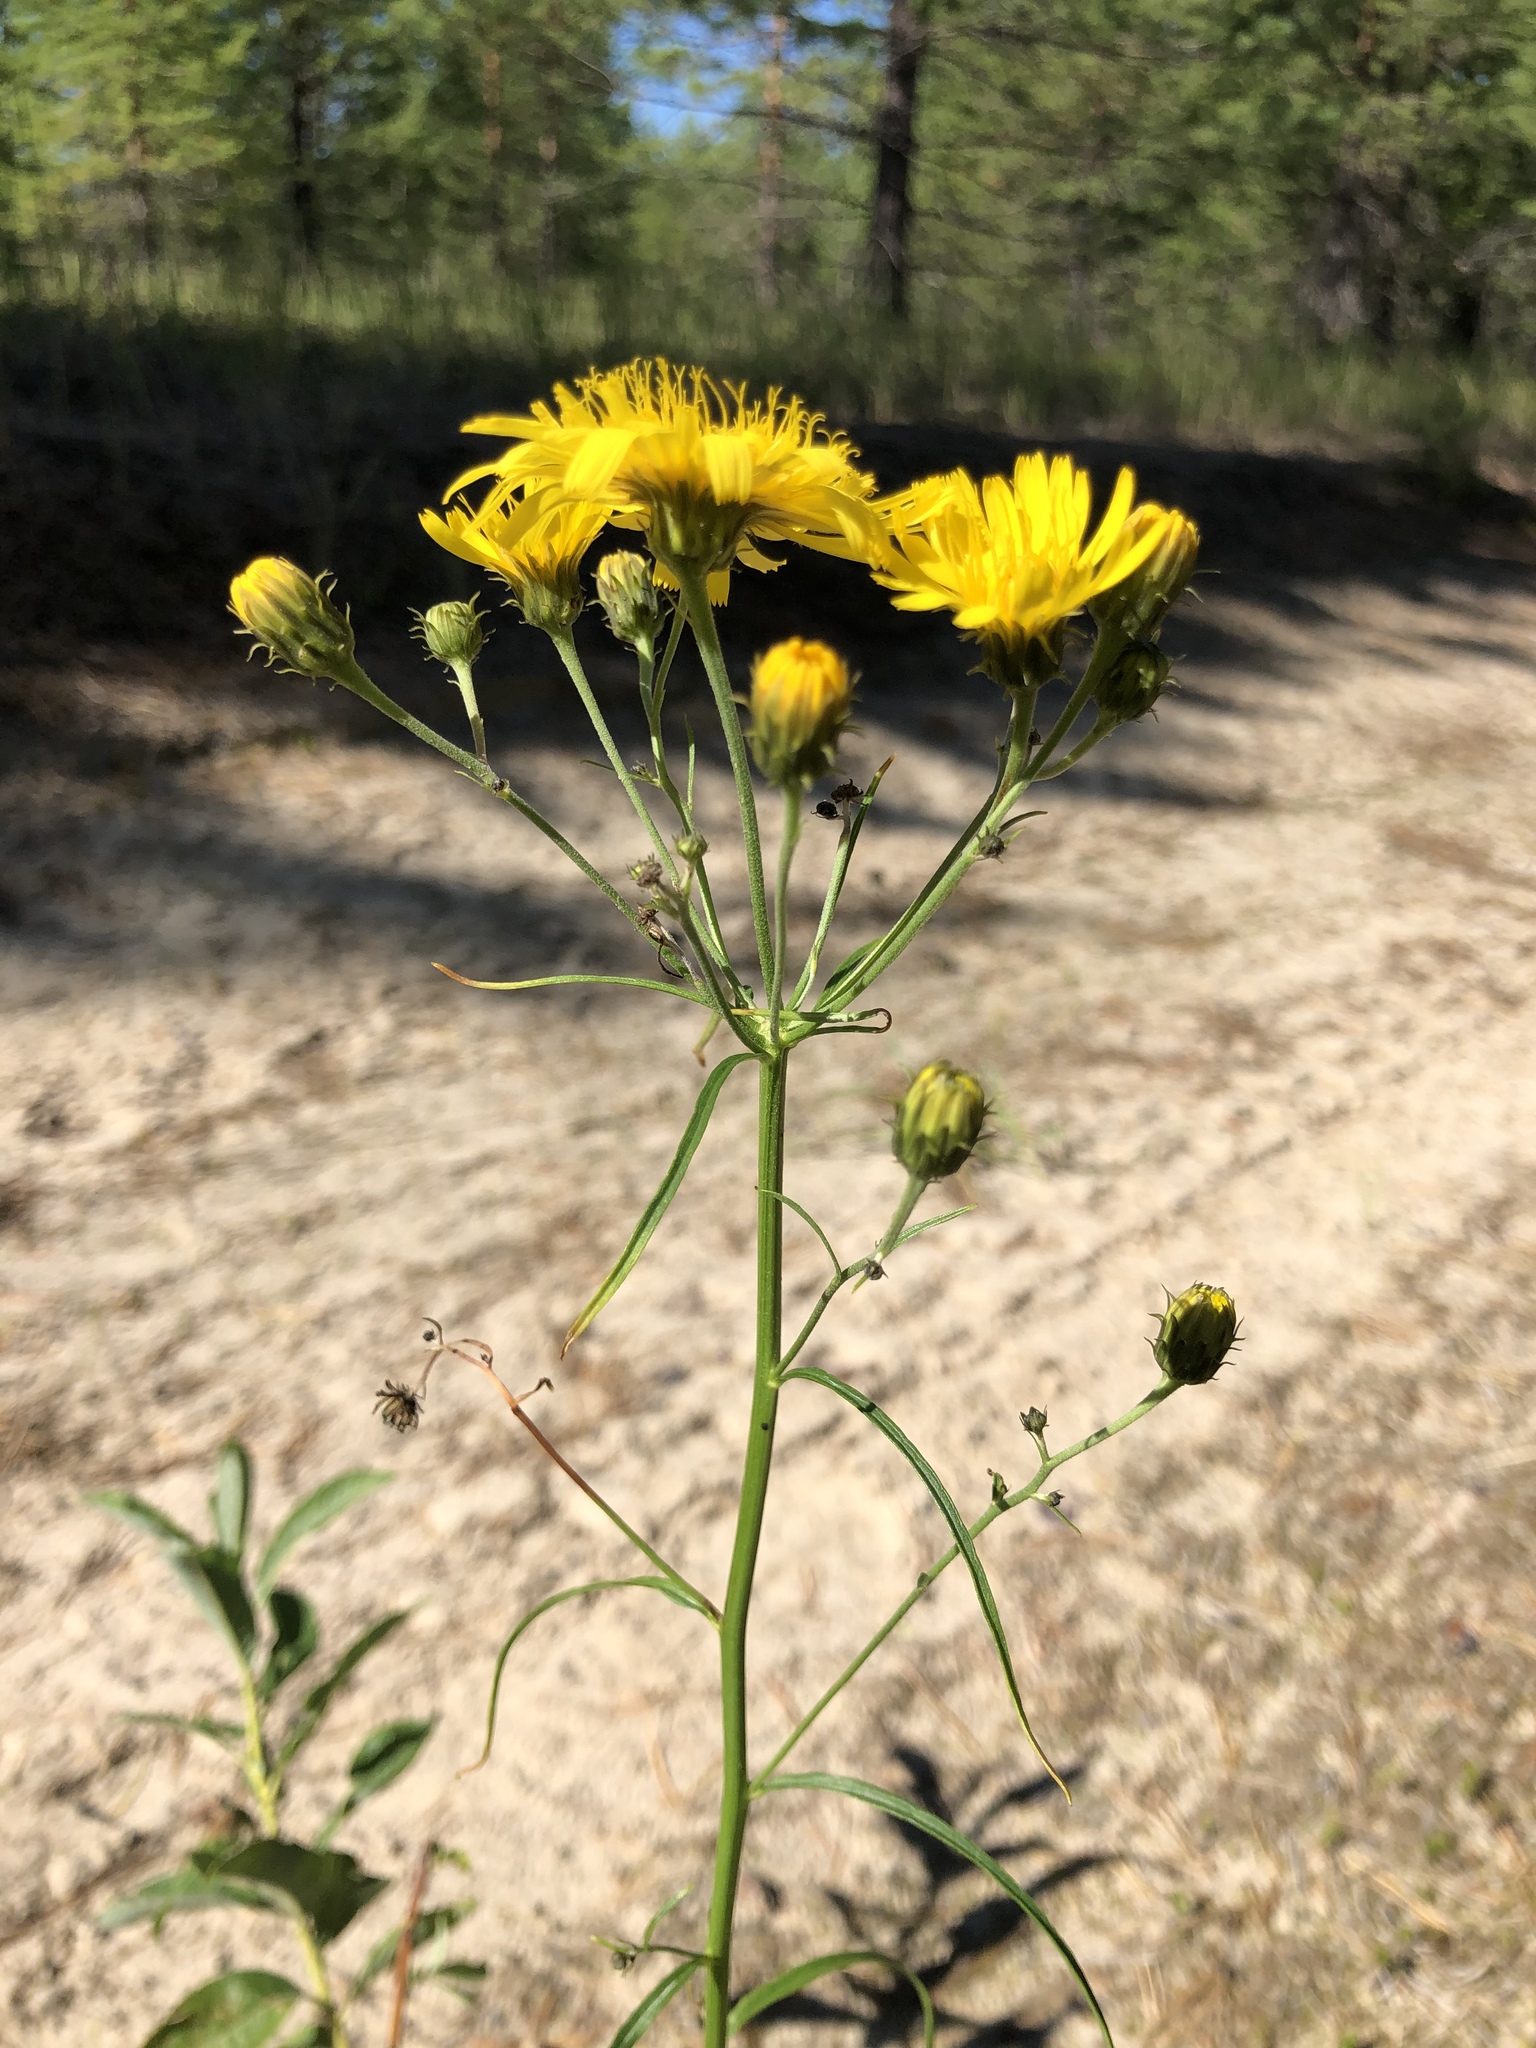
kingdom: Plantae
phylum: Tracheophyta
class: Magnoliopsida
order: Asterales
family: Asteraceae
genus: Hieracium
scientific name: Hieracium umbellatum
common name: Northern hawkweed
